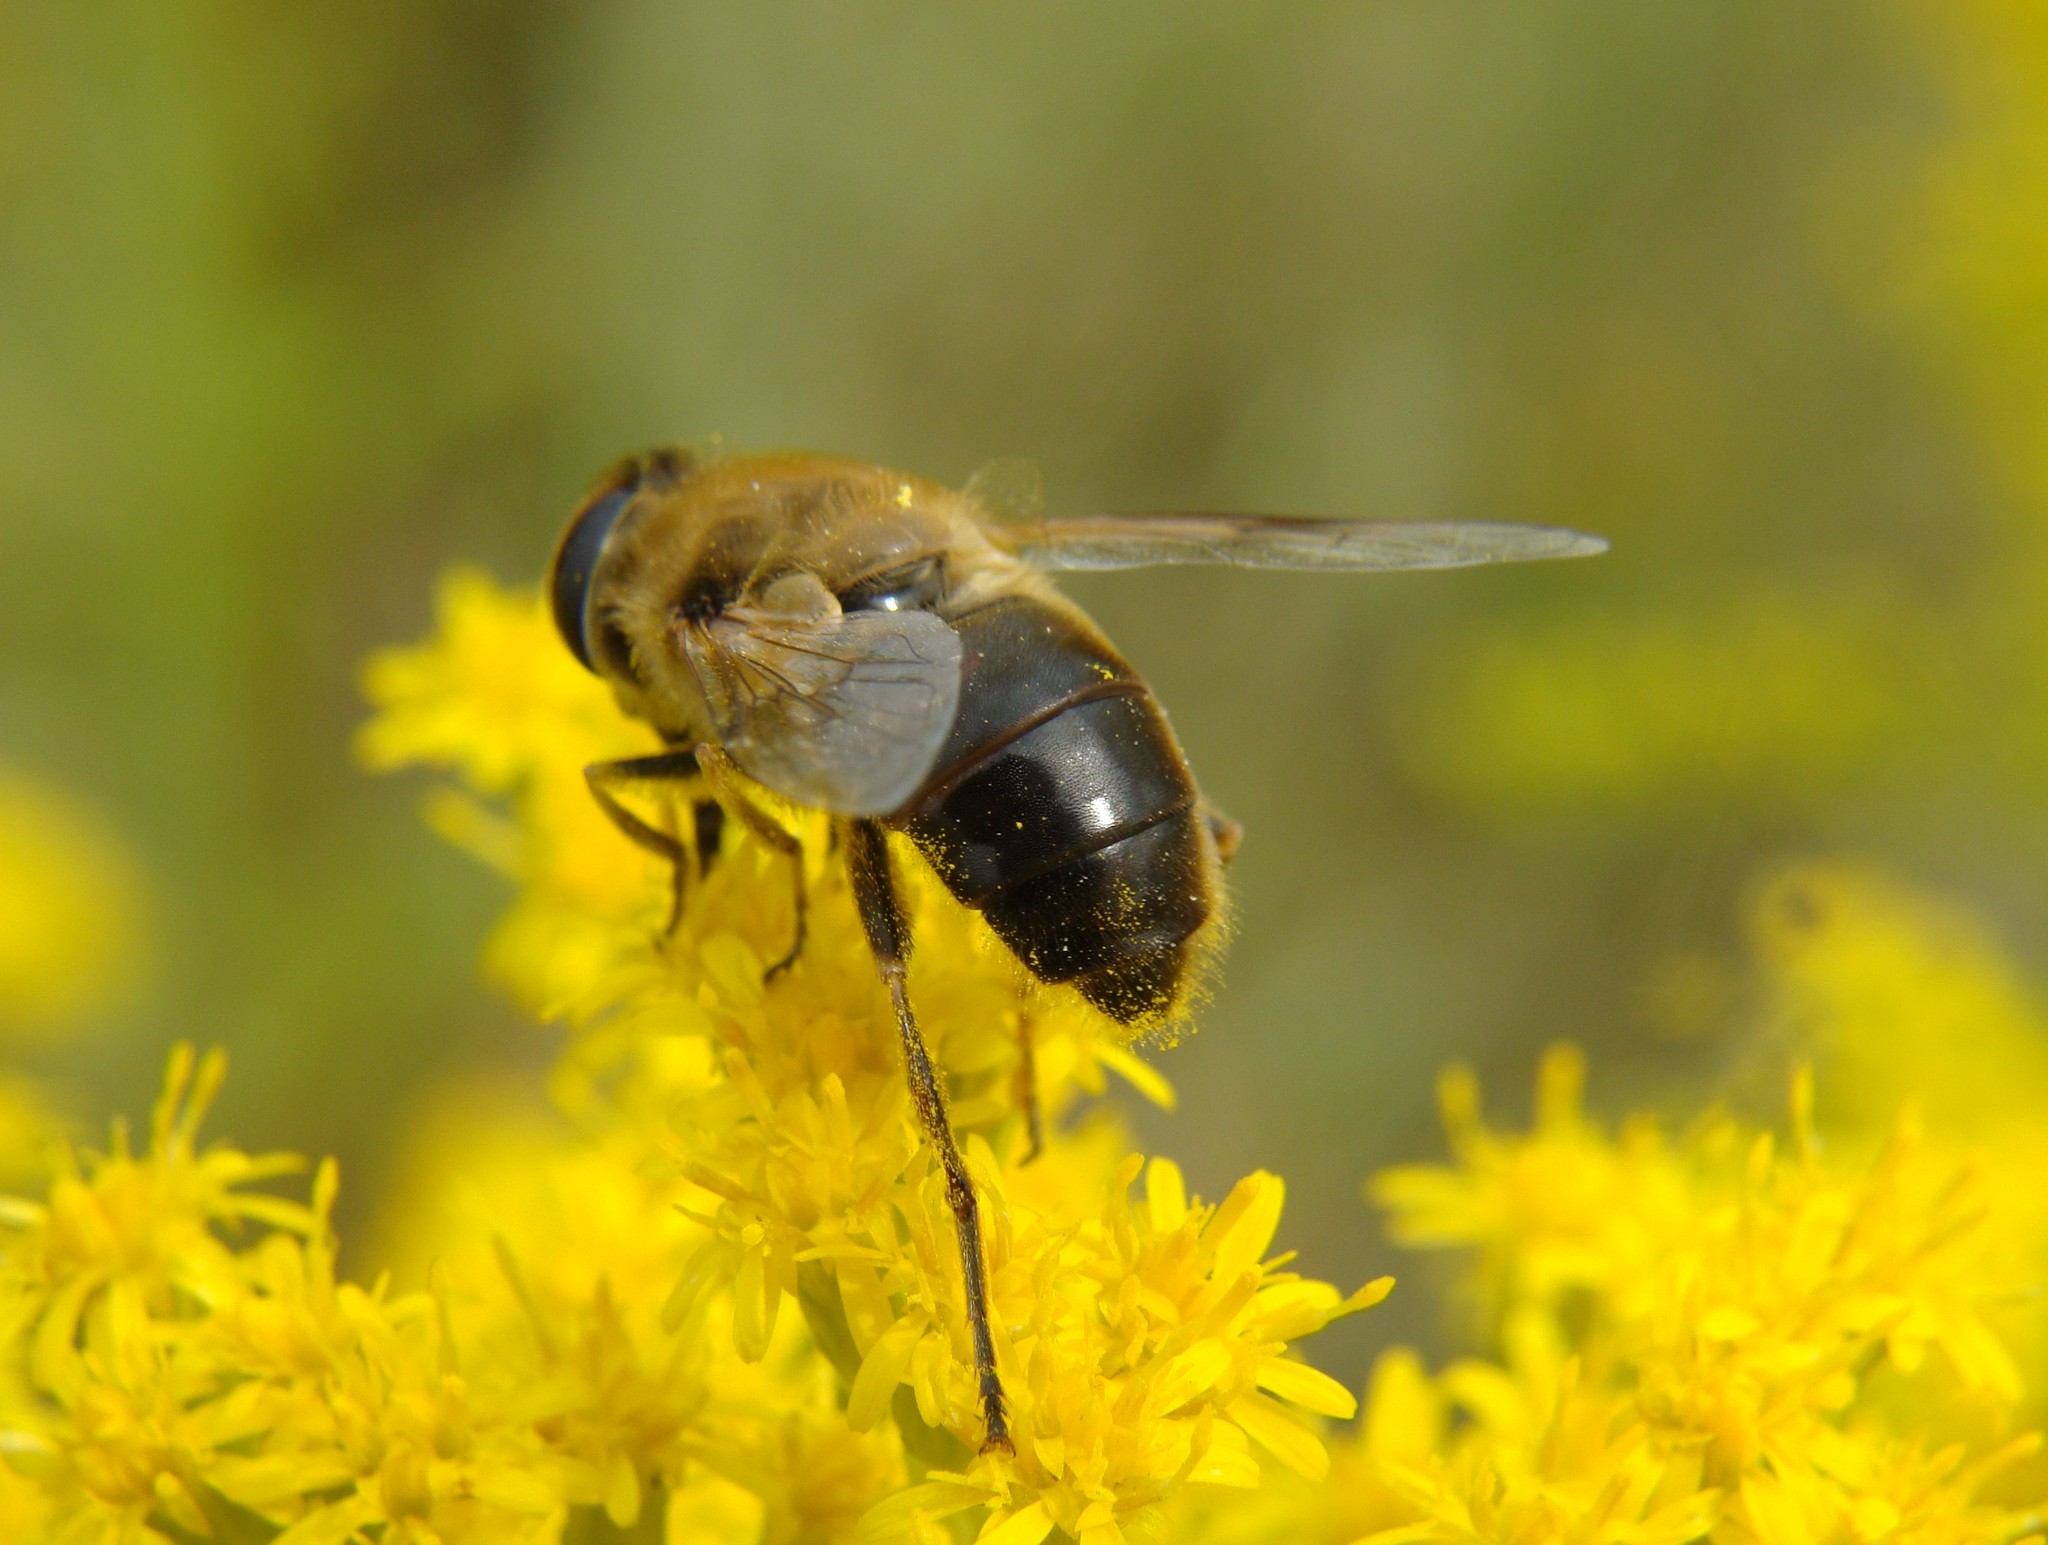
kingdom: Animalia
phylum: Arthropoda
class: Insecta
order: Diptera
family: Syrphidae
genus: Eristalis
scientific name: Eristalis tenax
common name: Drone fly
